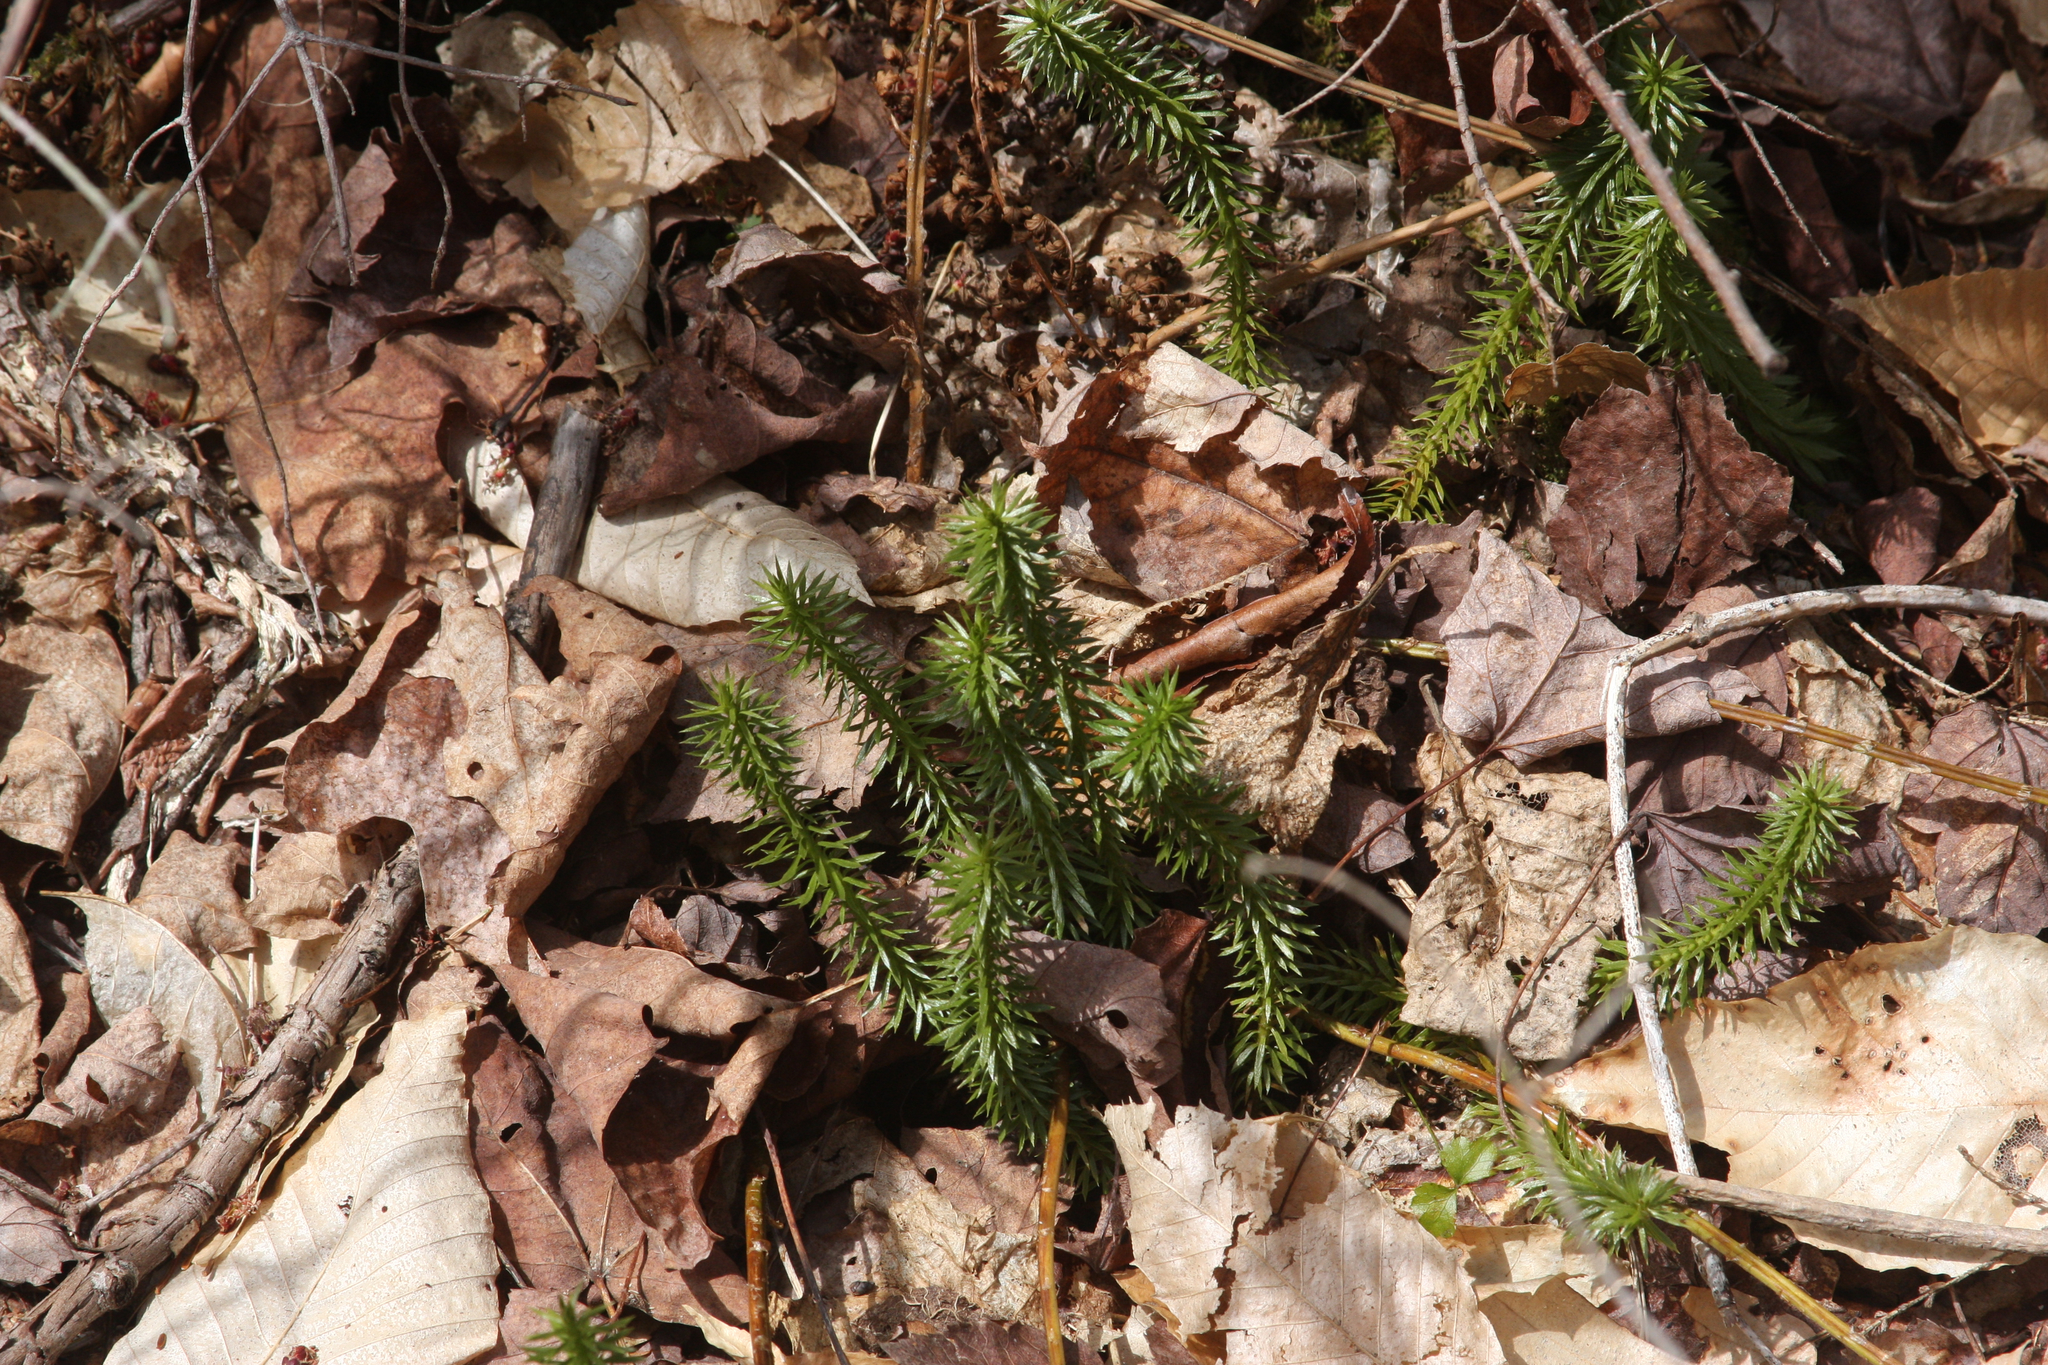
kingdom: Plantae
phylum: Tracheophyta
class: Lycopodiopsida
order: Lycopodiales
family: Lycopodiaceae
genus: Huperzia
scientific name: Huperzia lucidula
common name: Shining clubmoss
